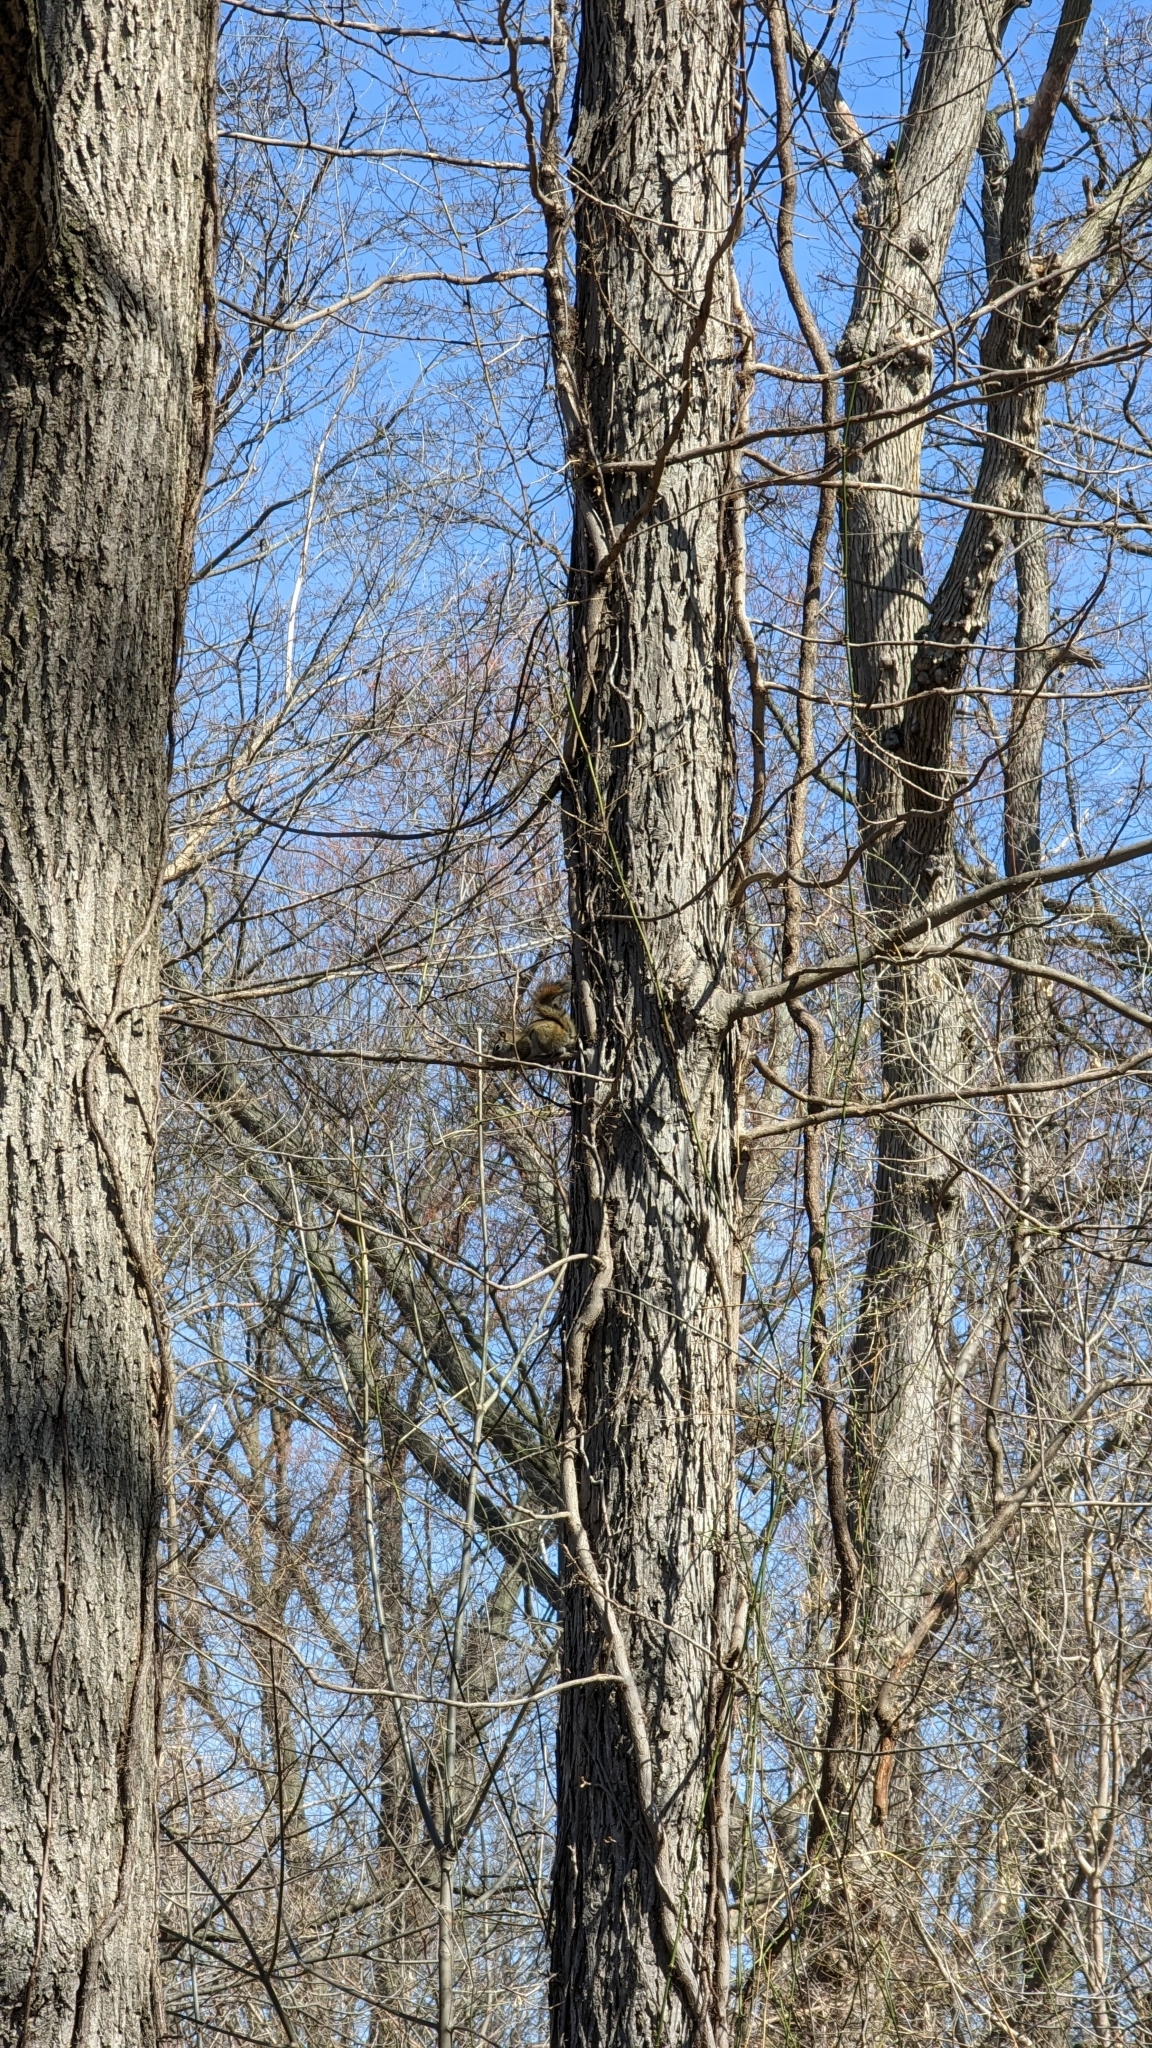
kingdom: Animalia
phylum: Chordata
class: Mammalia
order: Rodentia
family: Sciuridae
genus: Tamiasciurus
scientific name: Tamiasciurus hudsonicus
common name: Red squirrel
